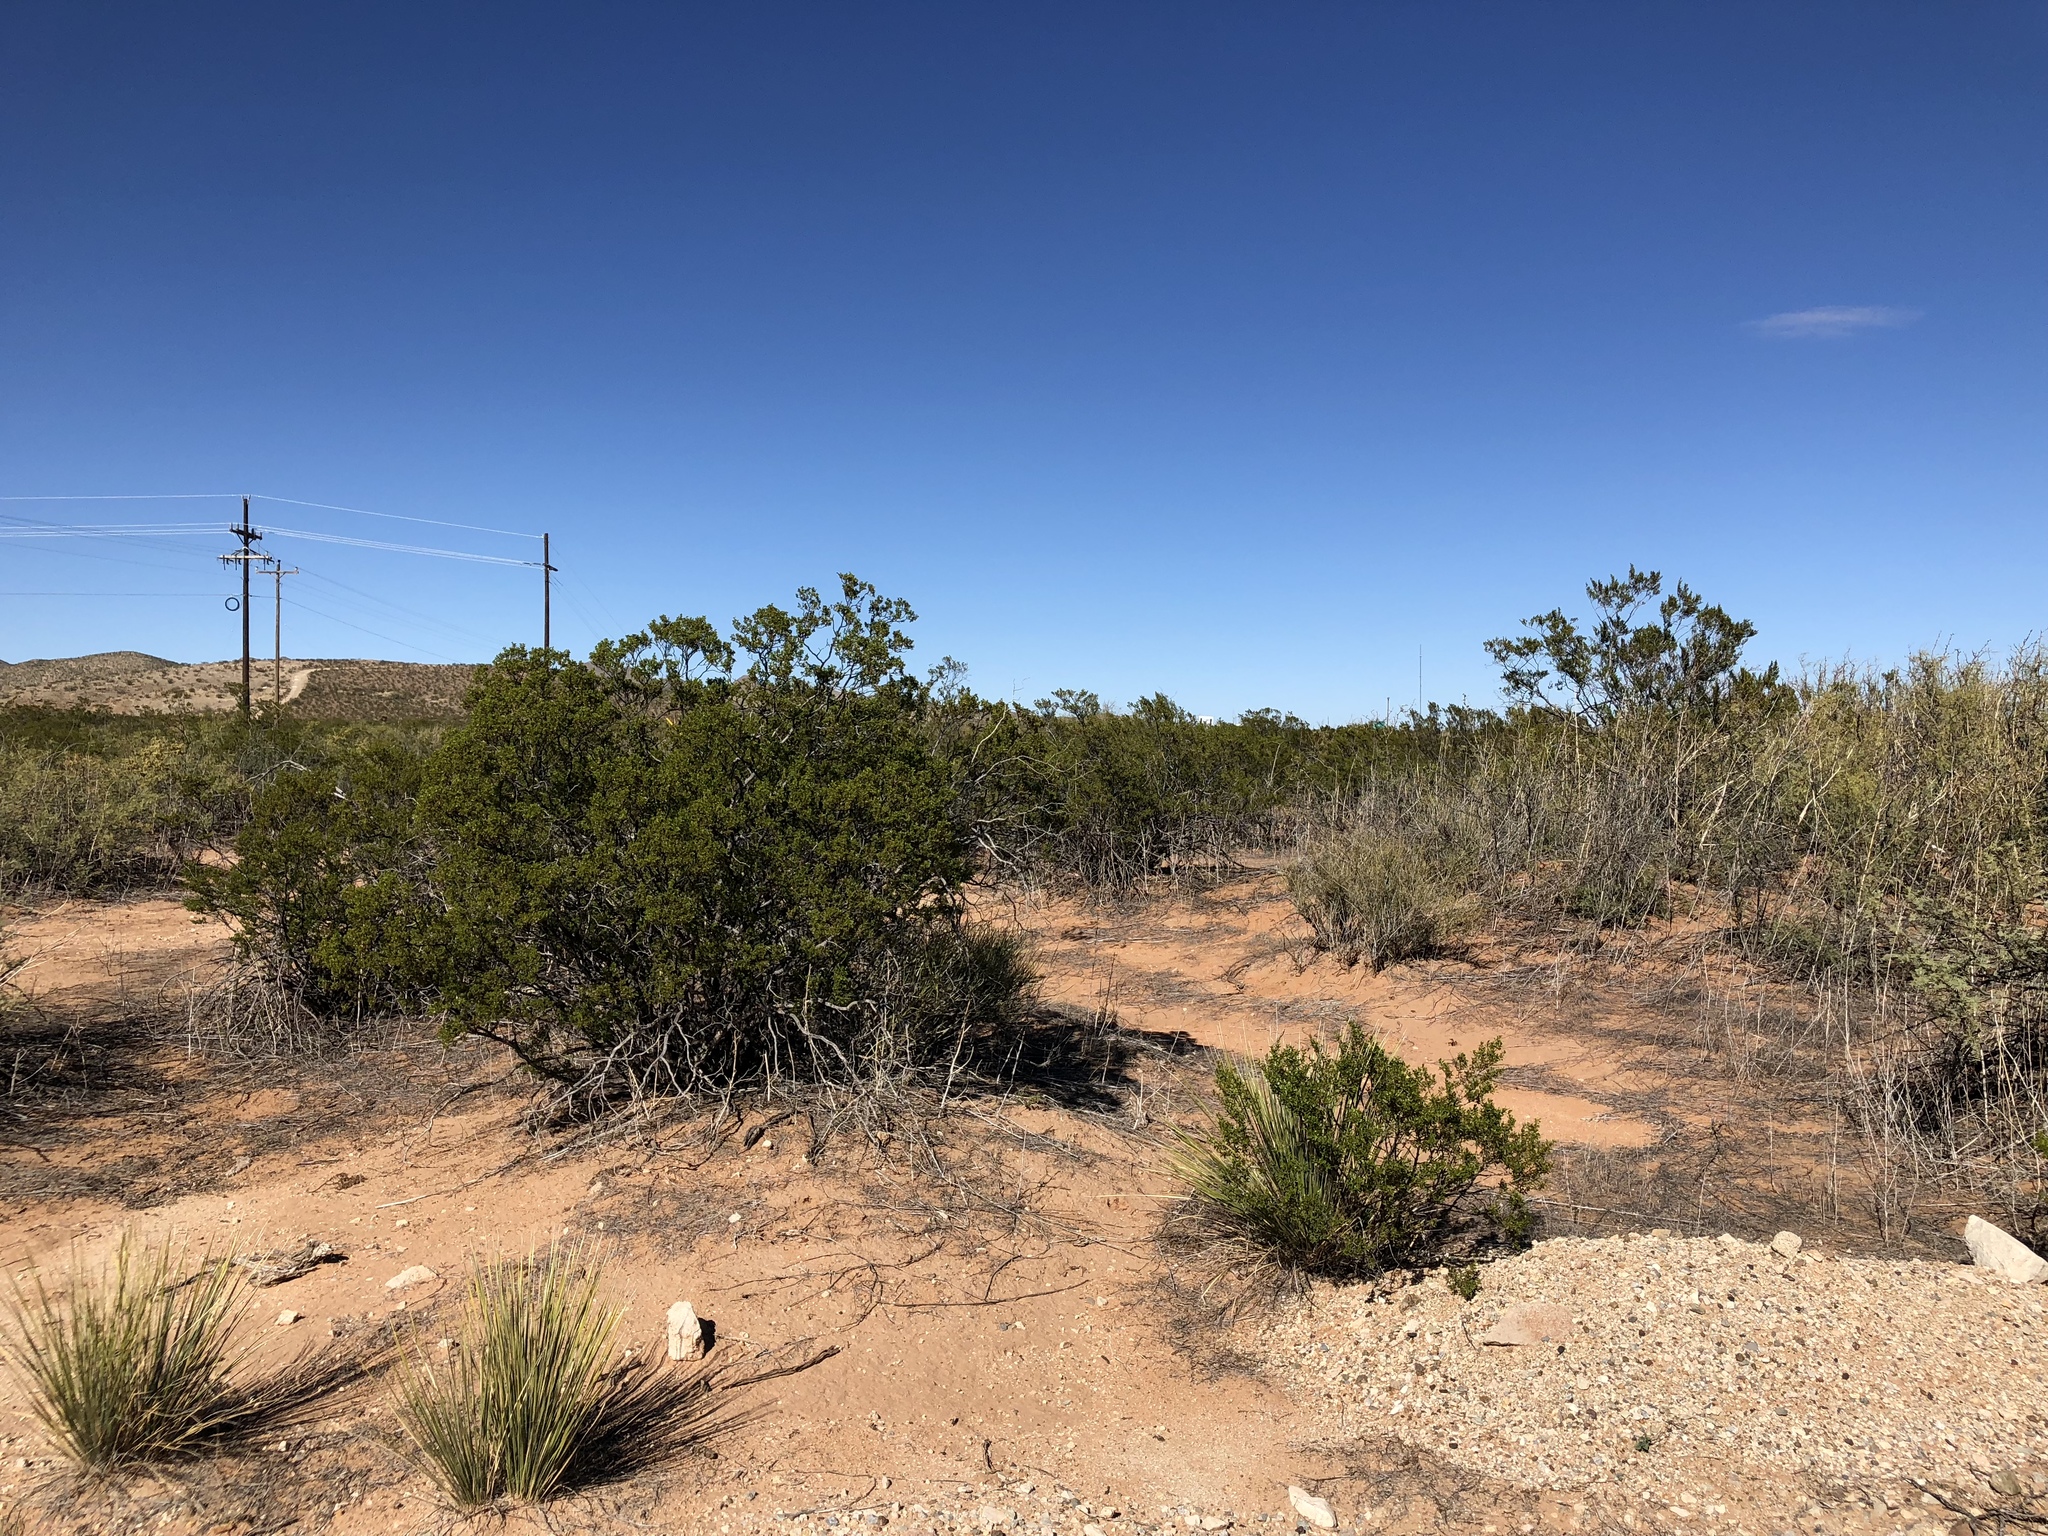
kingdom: Plantae
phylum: Tracheophyta
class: Magnoliopsida
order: Zygophyllales
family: Zygophyllaceae
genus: Larrea
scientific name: Larrea tridentata
